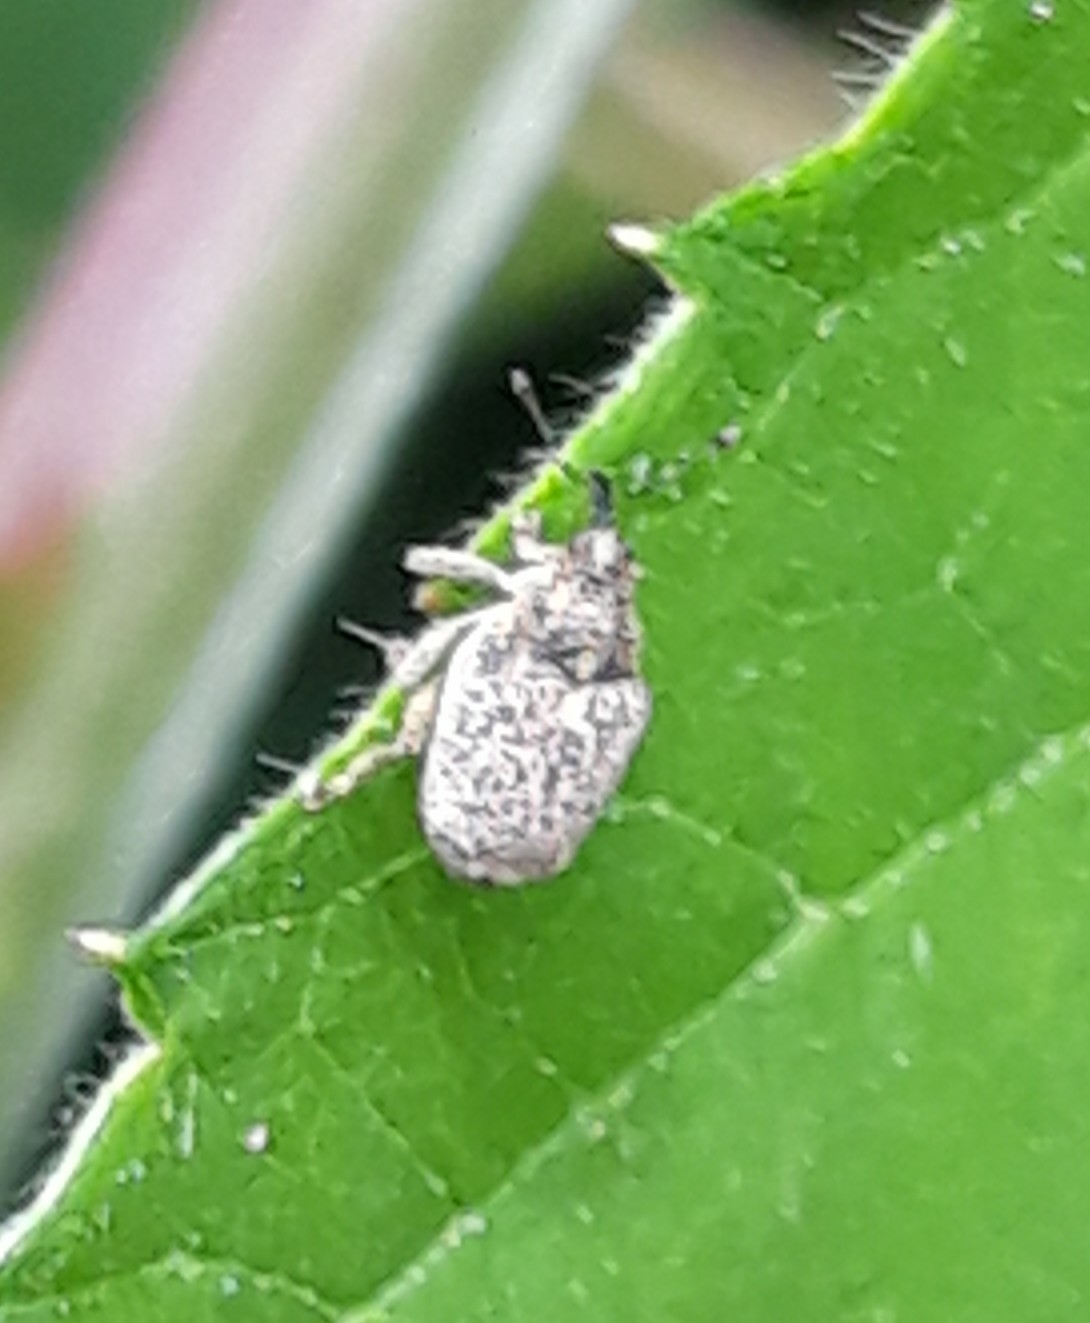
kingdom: Animalia
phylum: Arthropoda
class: Insecta
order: Coleoptera
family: Curculionidae
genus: Ceutorhynchus
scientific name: Ceutorhynchus pallidactylus
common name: Cabbage stem weavil
